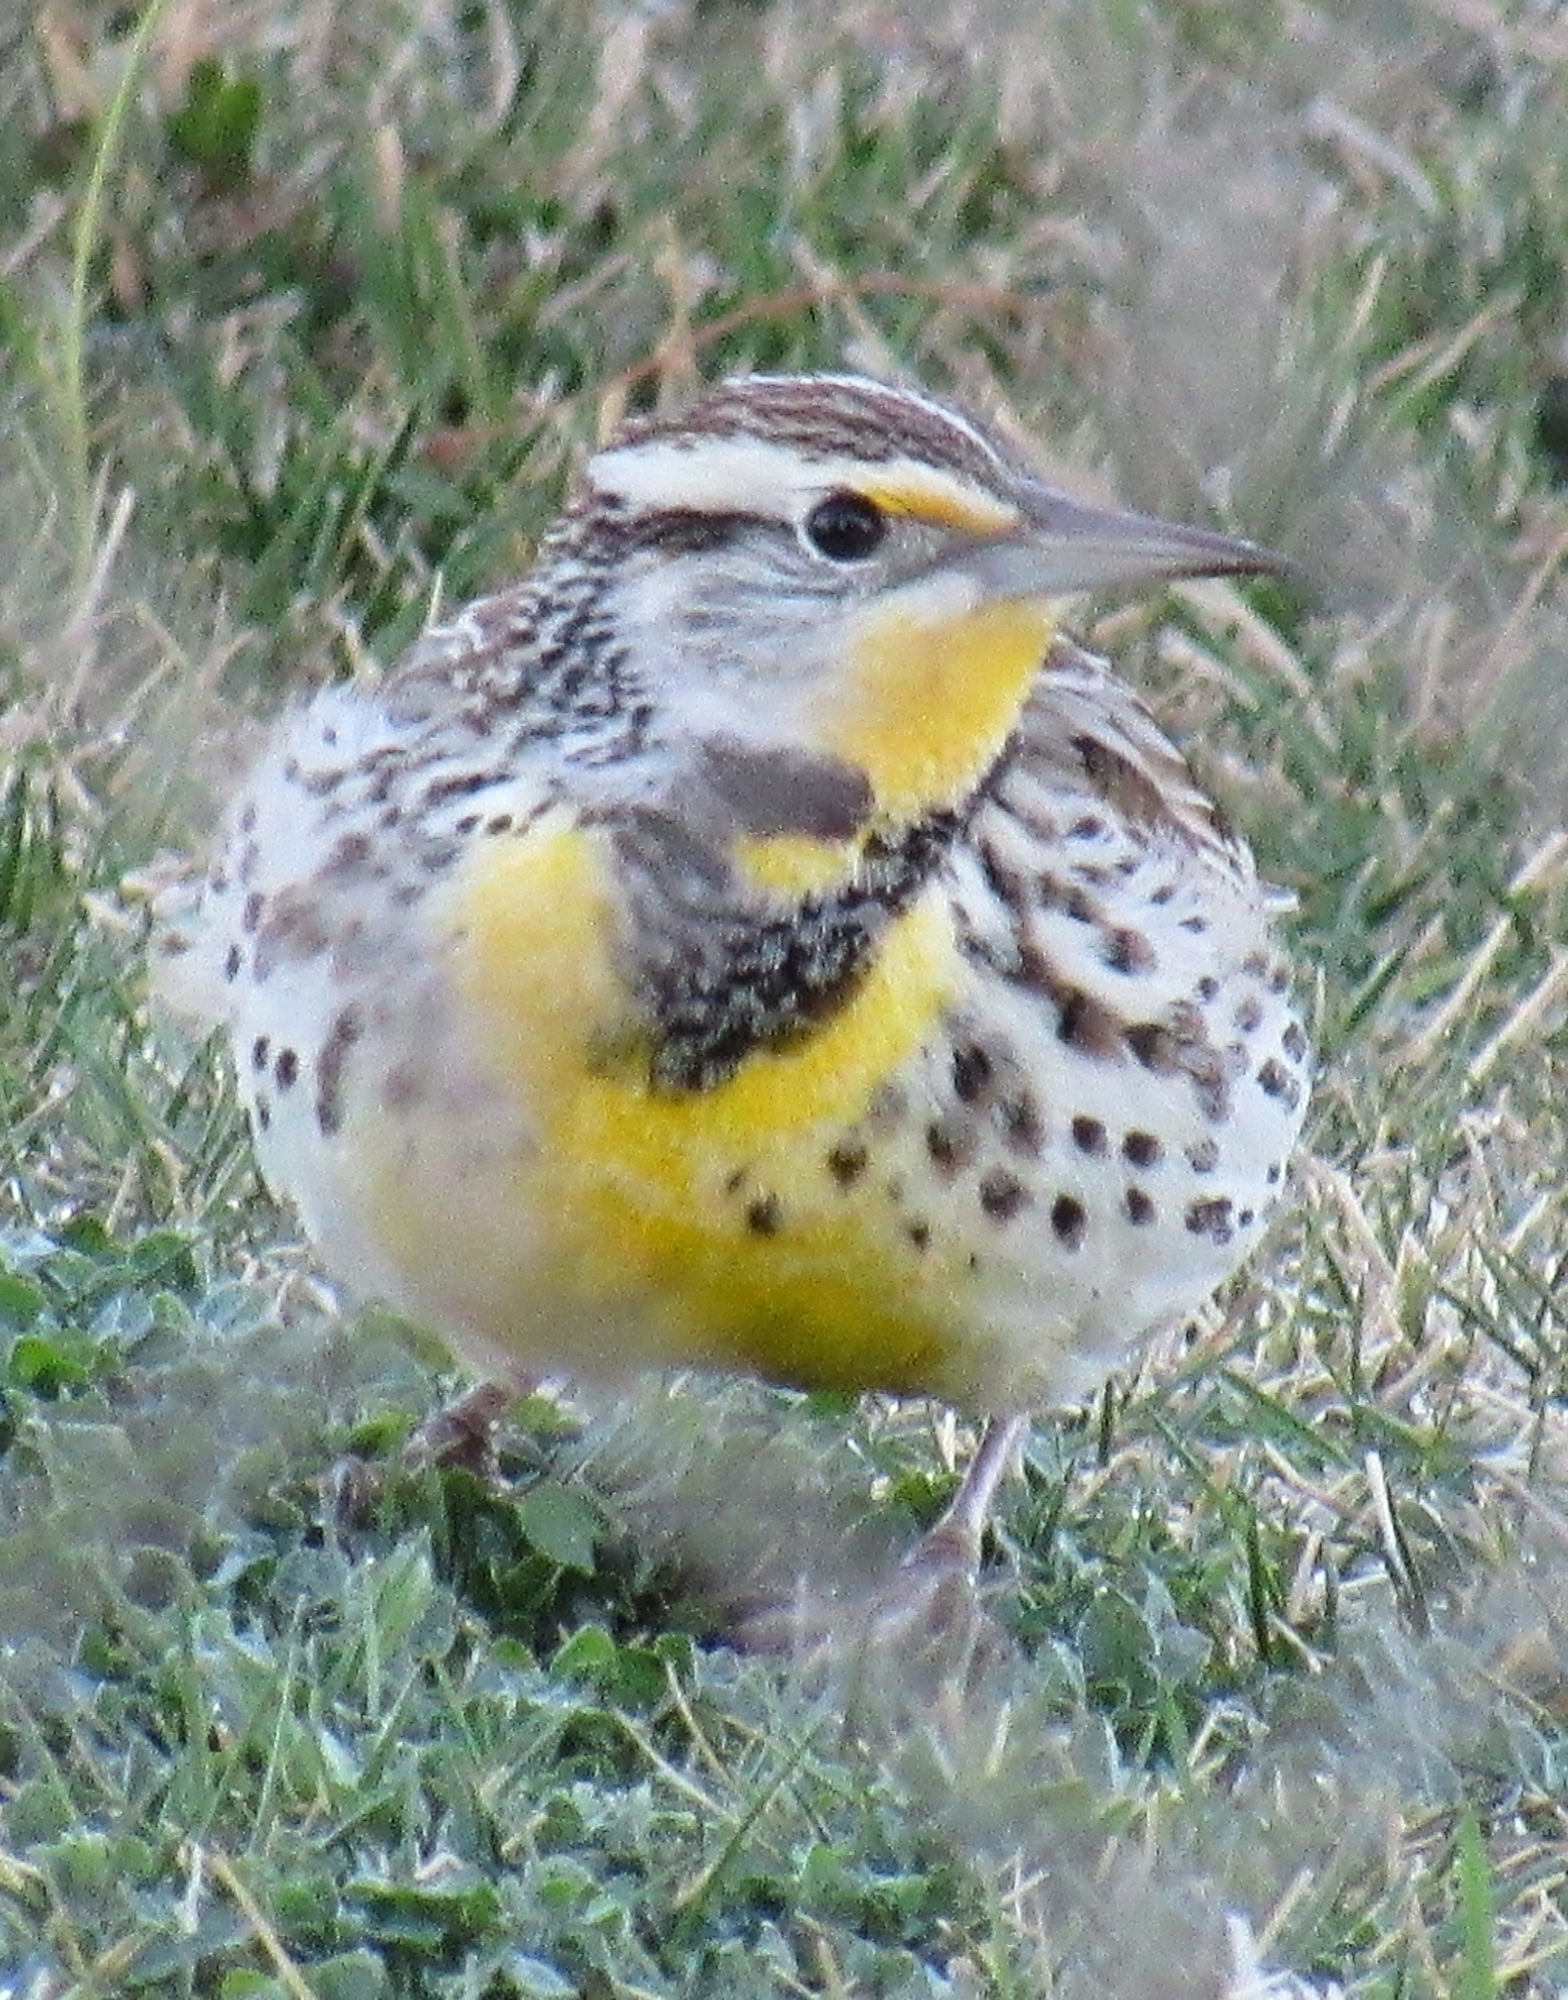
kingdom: Animalia
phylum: Chordata
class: Aves
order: Passeriformes
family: Icteridae
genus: Sturnella
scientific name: Sturnella neglecta
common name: Western meadowlark
